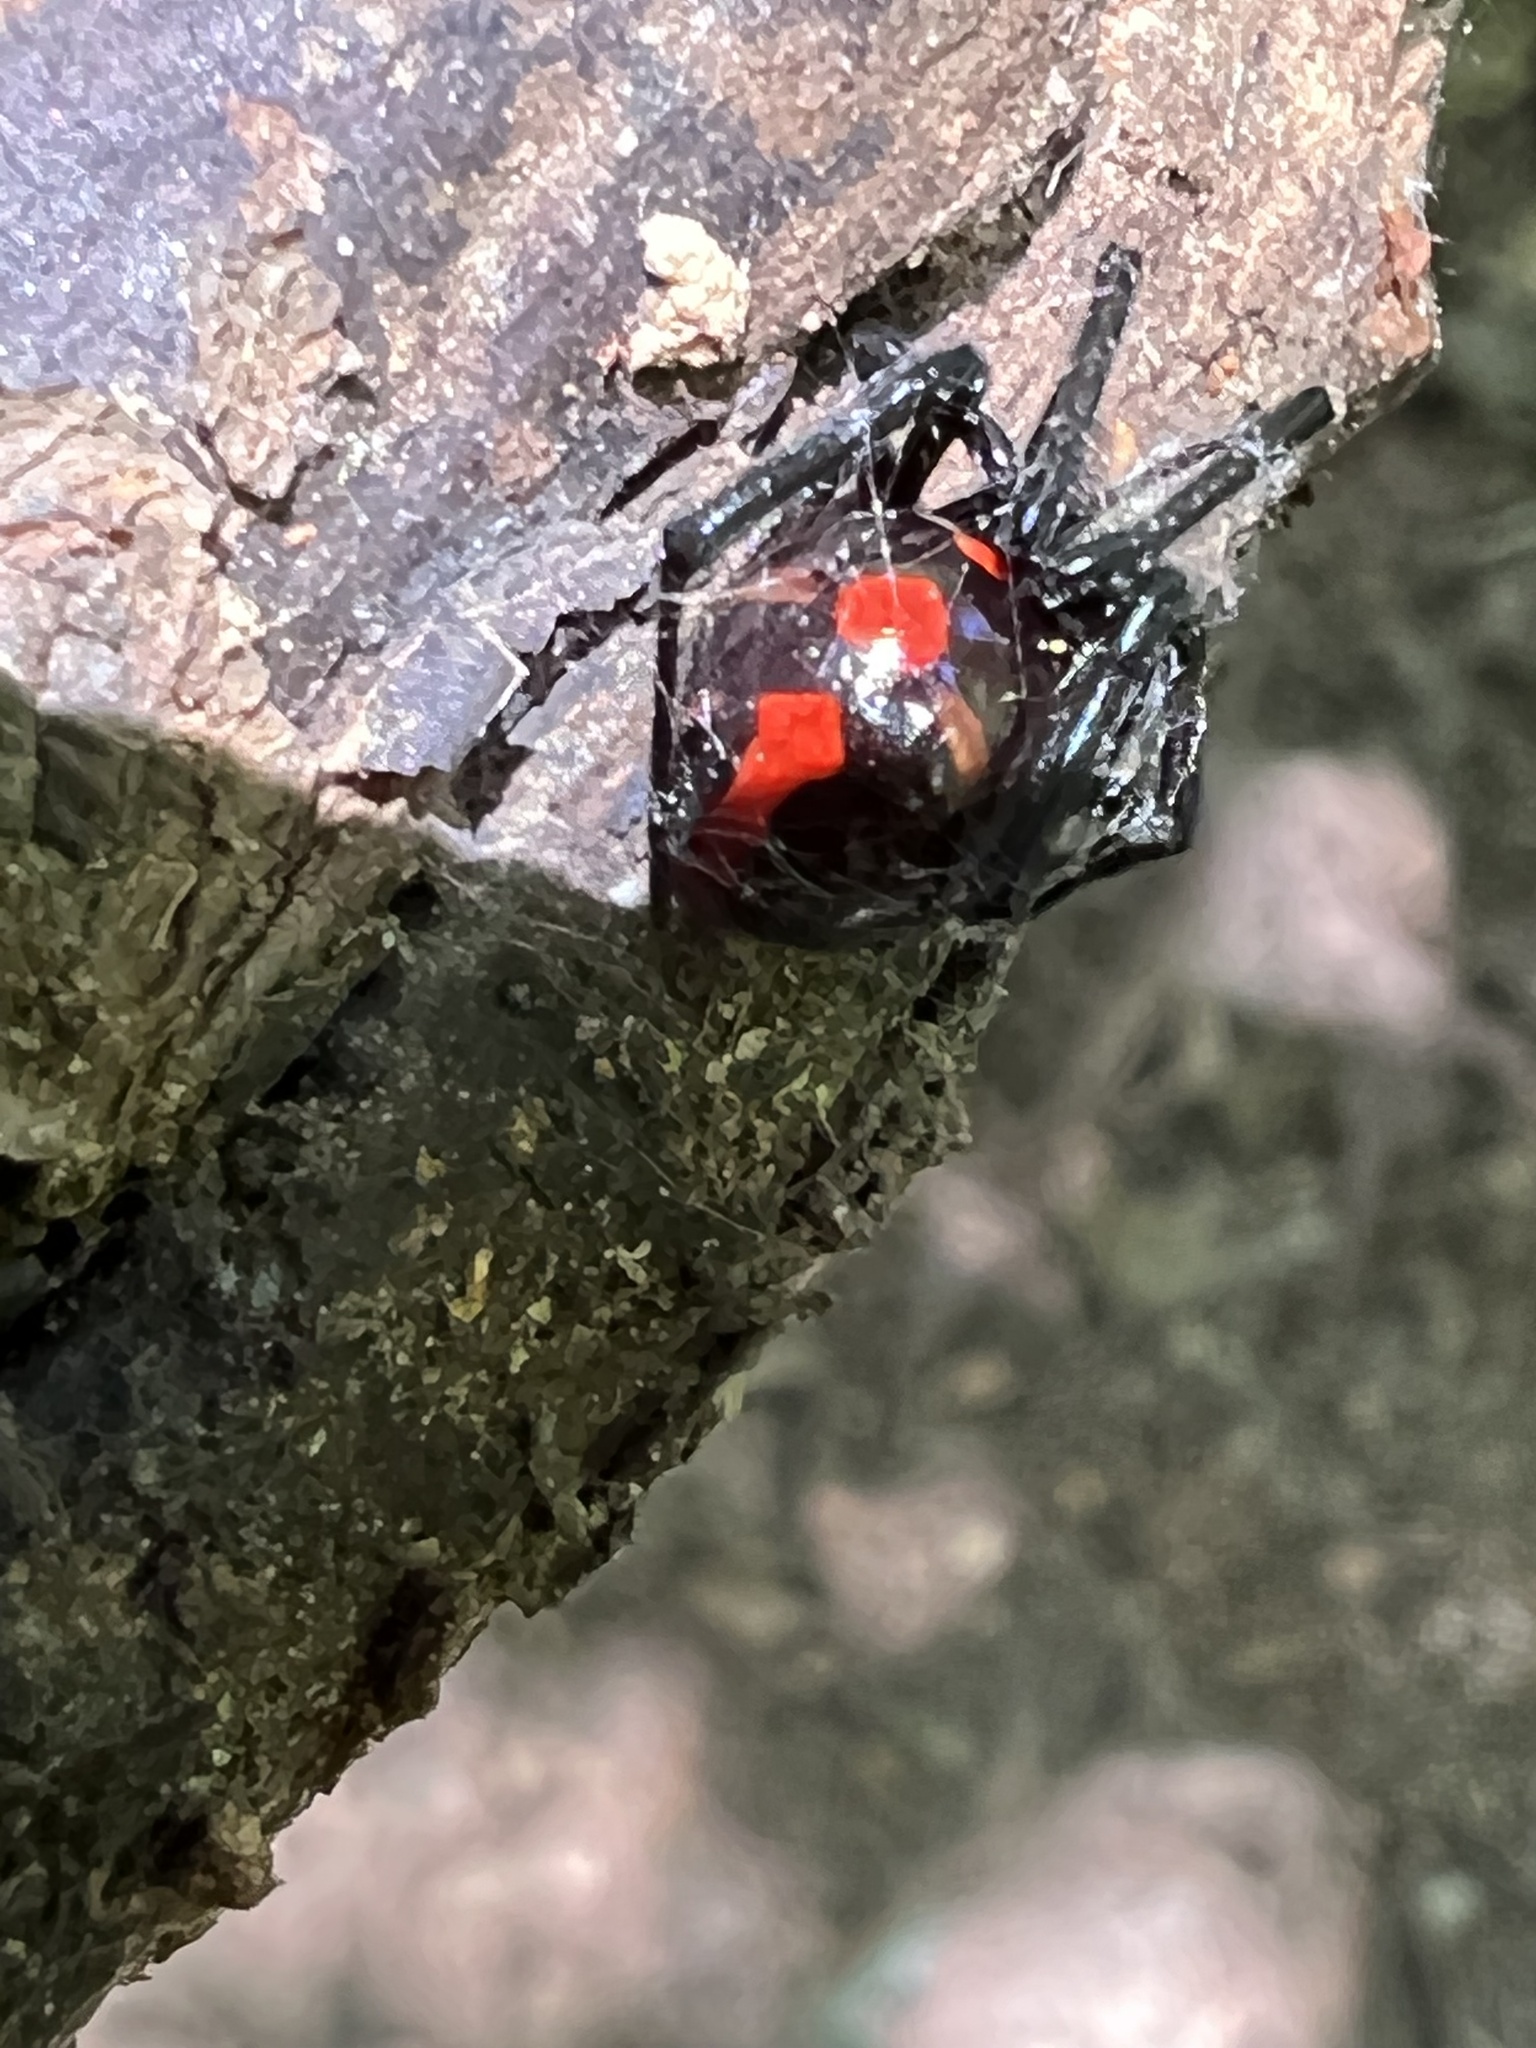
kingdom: Animalia
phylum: Arthropoda
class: Arachnida
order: Araneae
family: Theridiidae
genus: Latrodectus
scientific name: Latrodectus variolus
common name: Northern black widow
